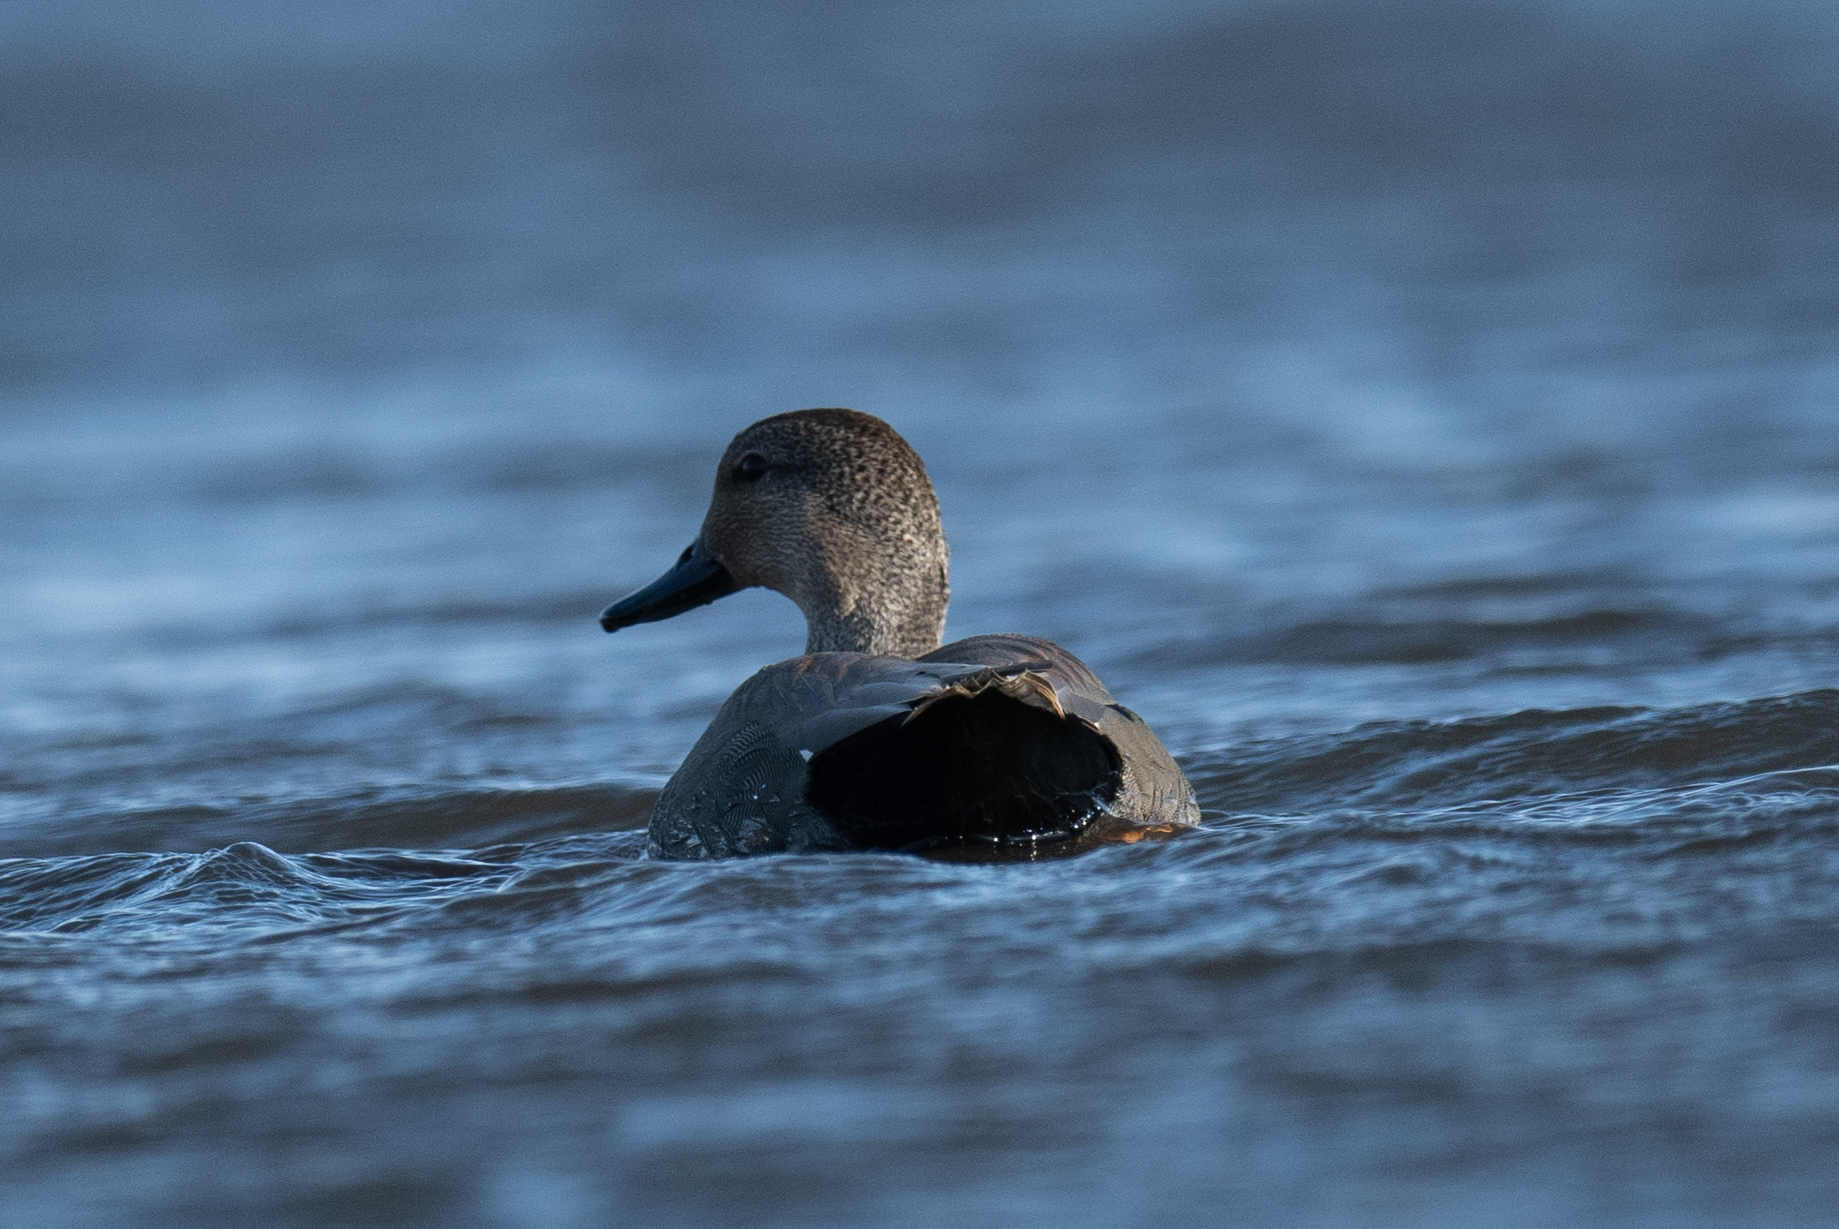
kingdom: Animalia
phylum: Chordata
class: Aves
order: Anseriformes
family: Anatidae
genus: Mareca
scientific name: Mareca strepera
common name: Gadwall
